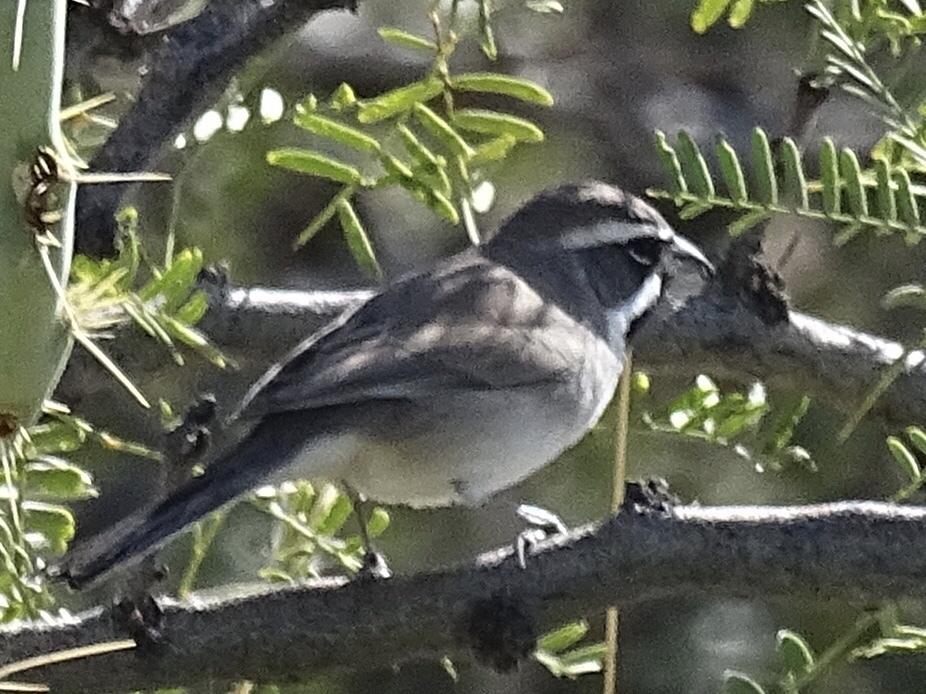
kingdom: Animalia
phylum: Chordata
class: Aves
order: Passeriformes
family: Passerellidae
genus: Amphispiza
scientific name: Amphispiza bilineata
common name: Black-throated sparrow
